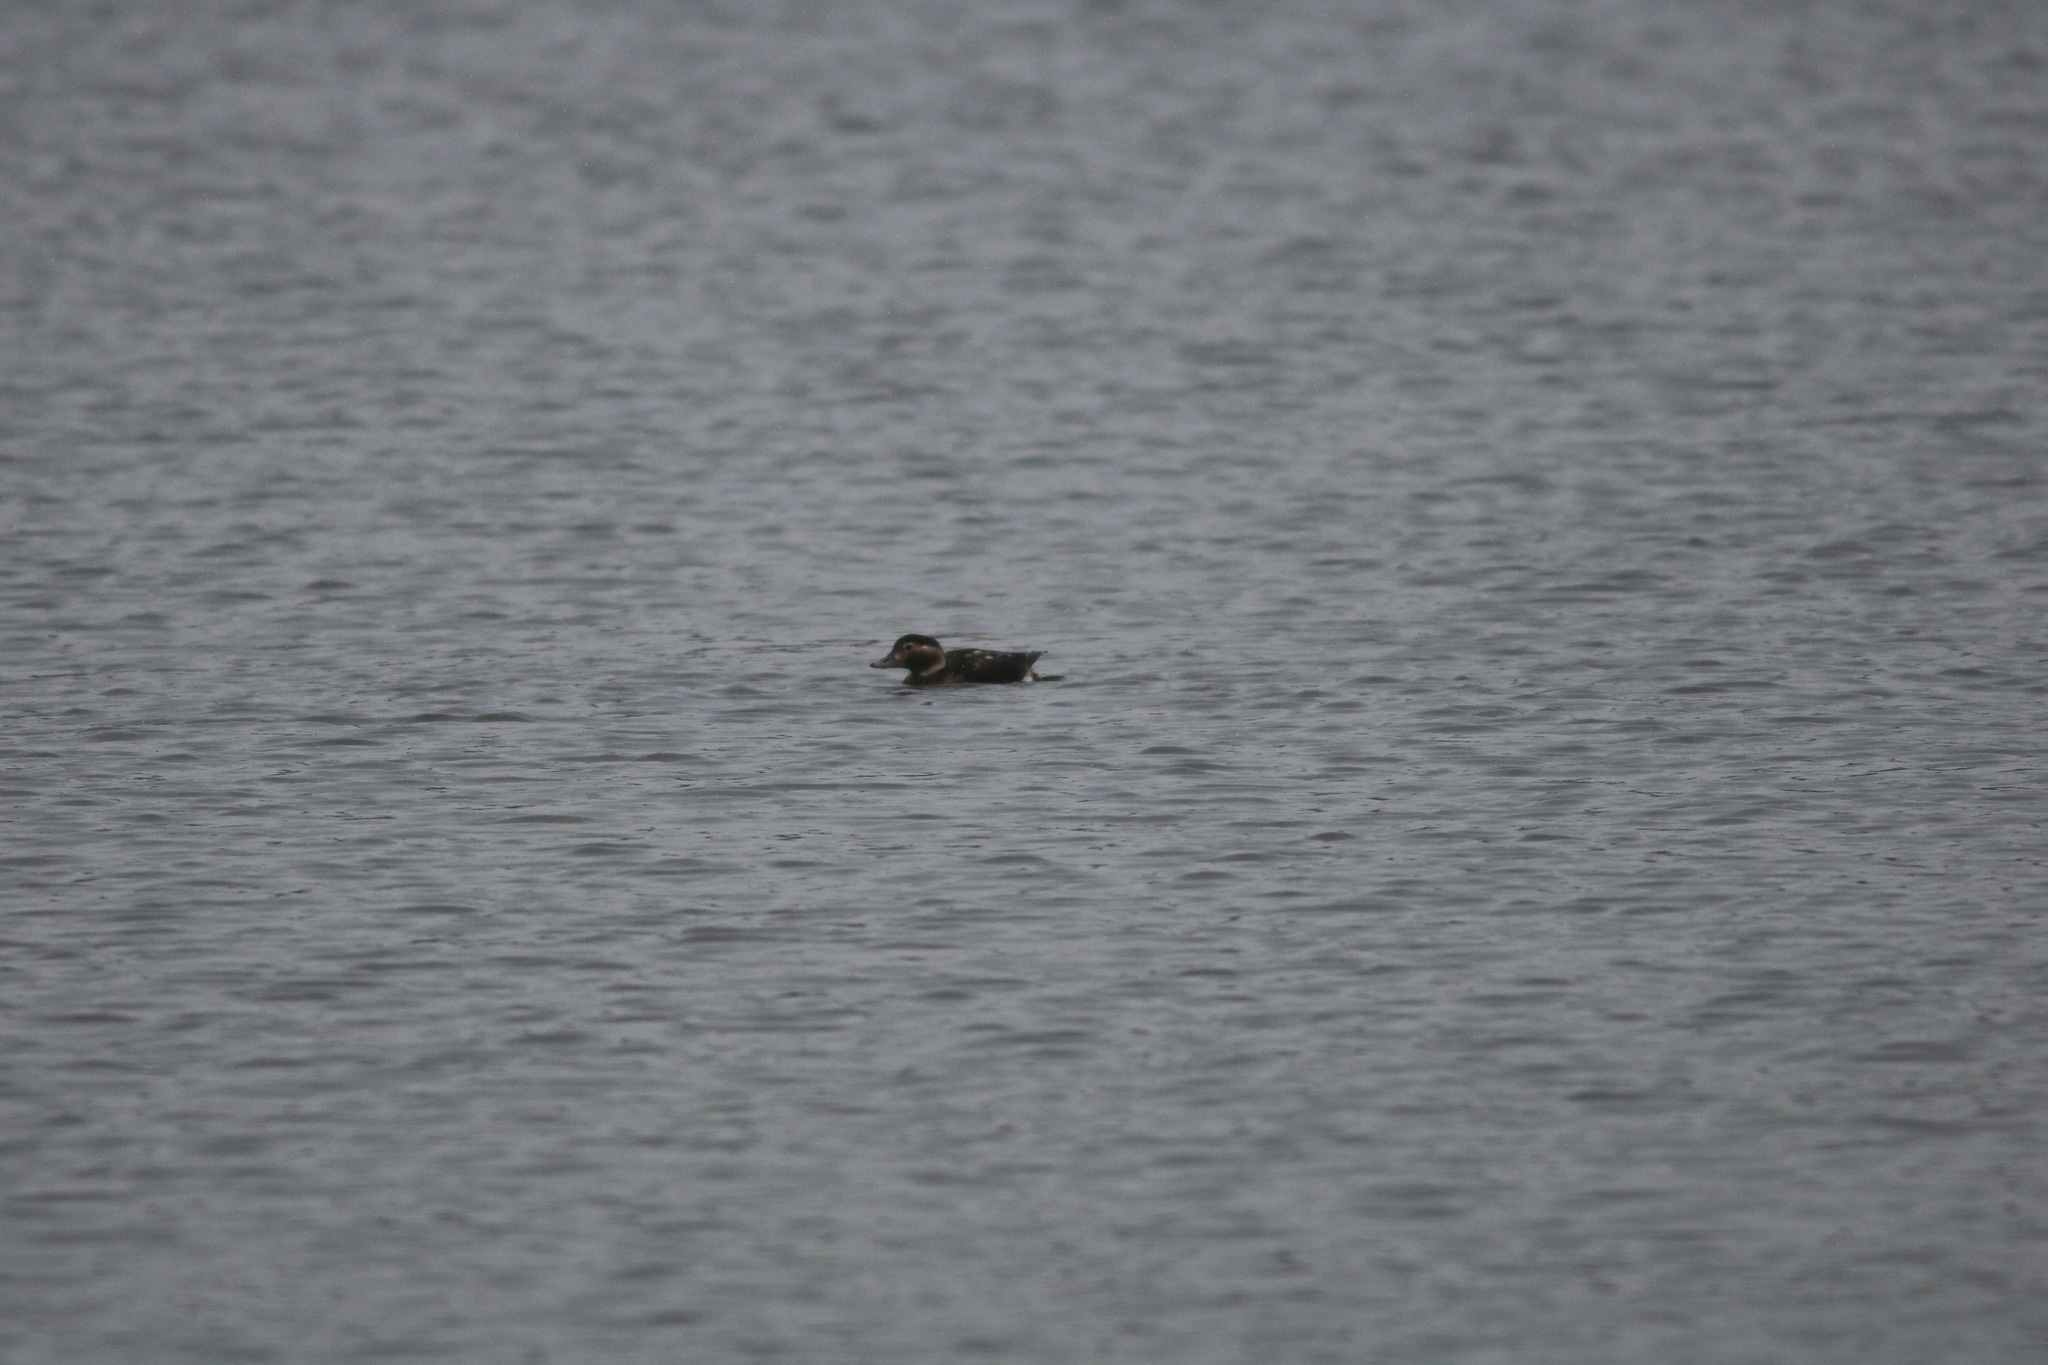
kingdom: Animalia
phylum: Chordata
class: Aves
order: Anseriformes
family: Anatidae
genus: Clangula
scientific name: Clangula hyemalis
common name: Long-tailed duck
